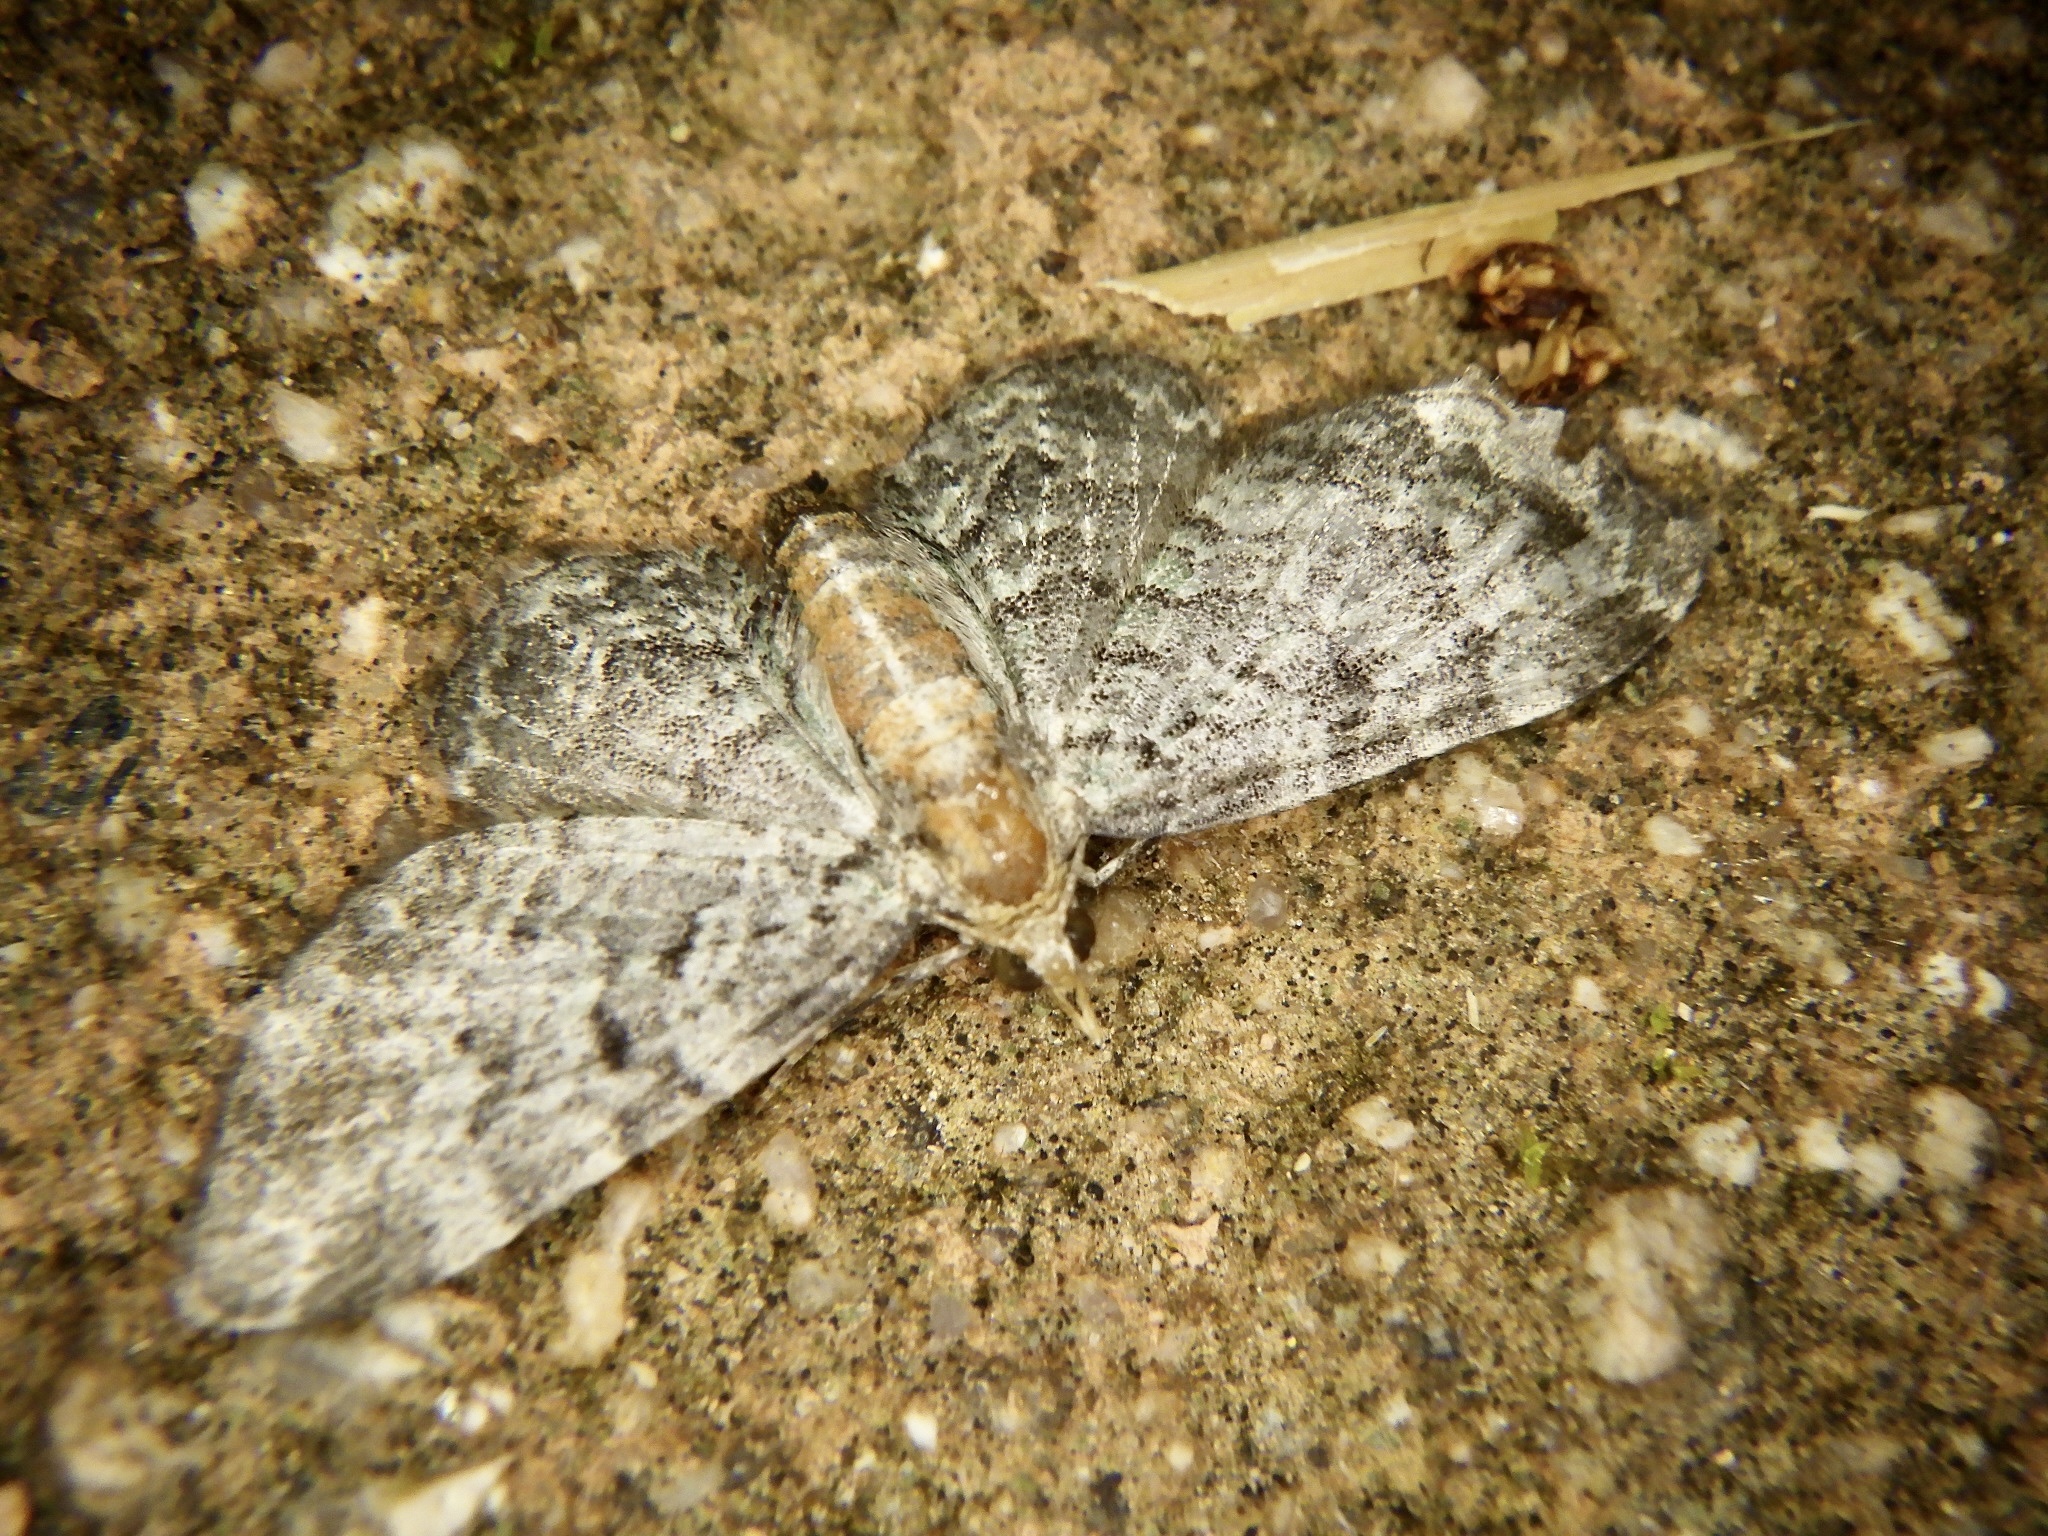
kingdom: Animalia
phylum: Arthropoda
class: Insecta
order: Lepidoptera
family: Geometridae
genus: Pasiphila
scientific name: Pasiphila obscura
